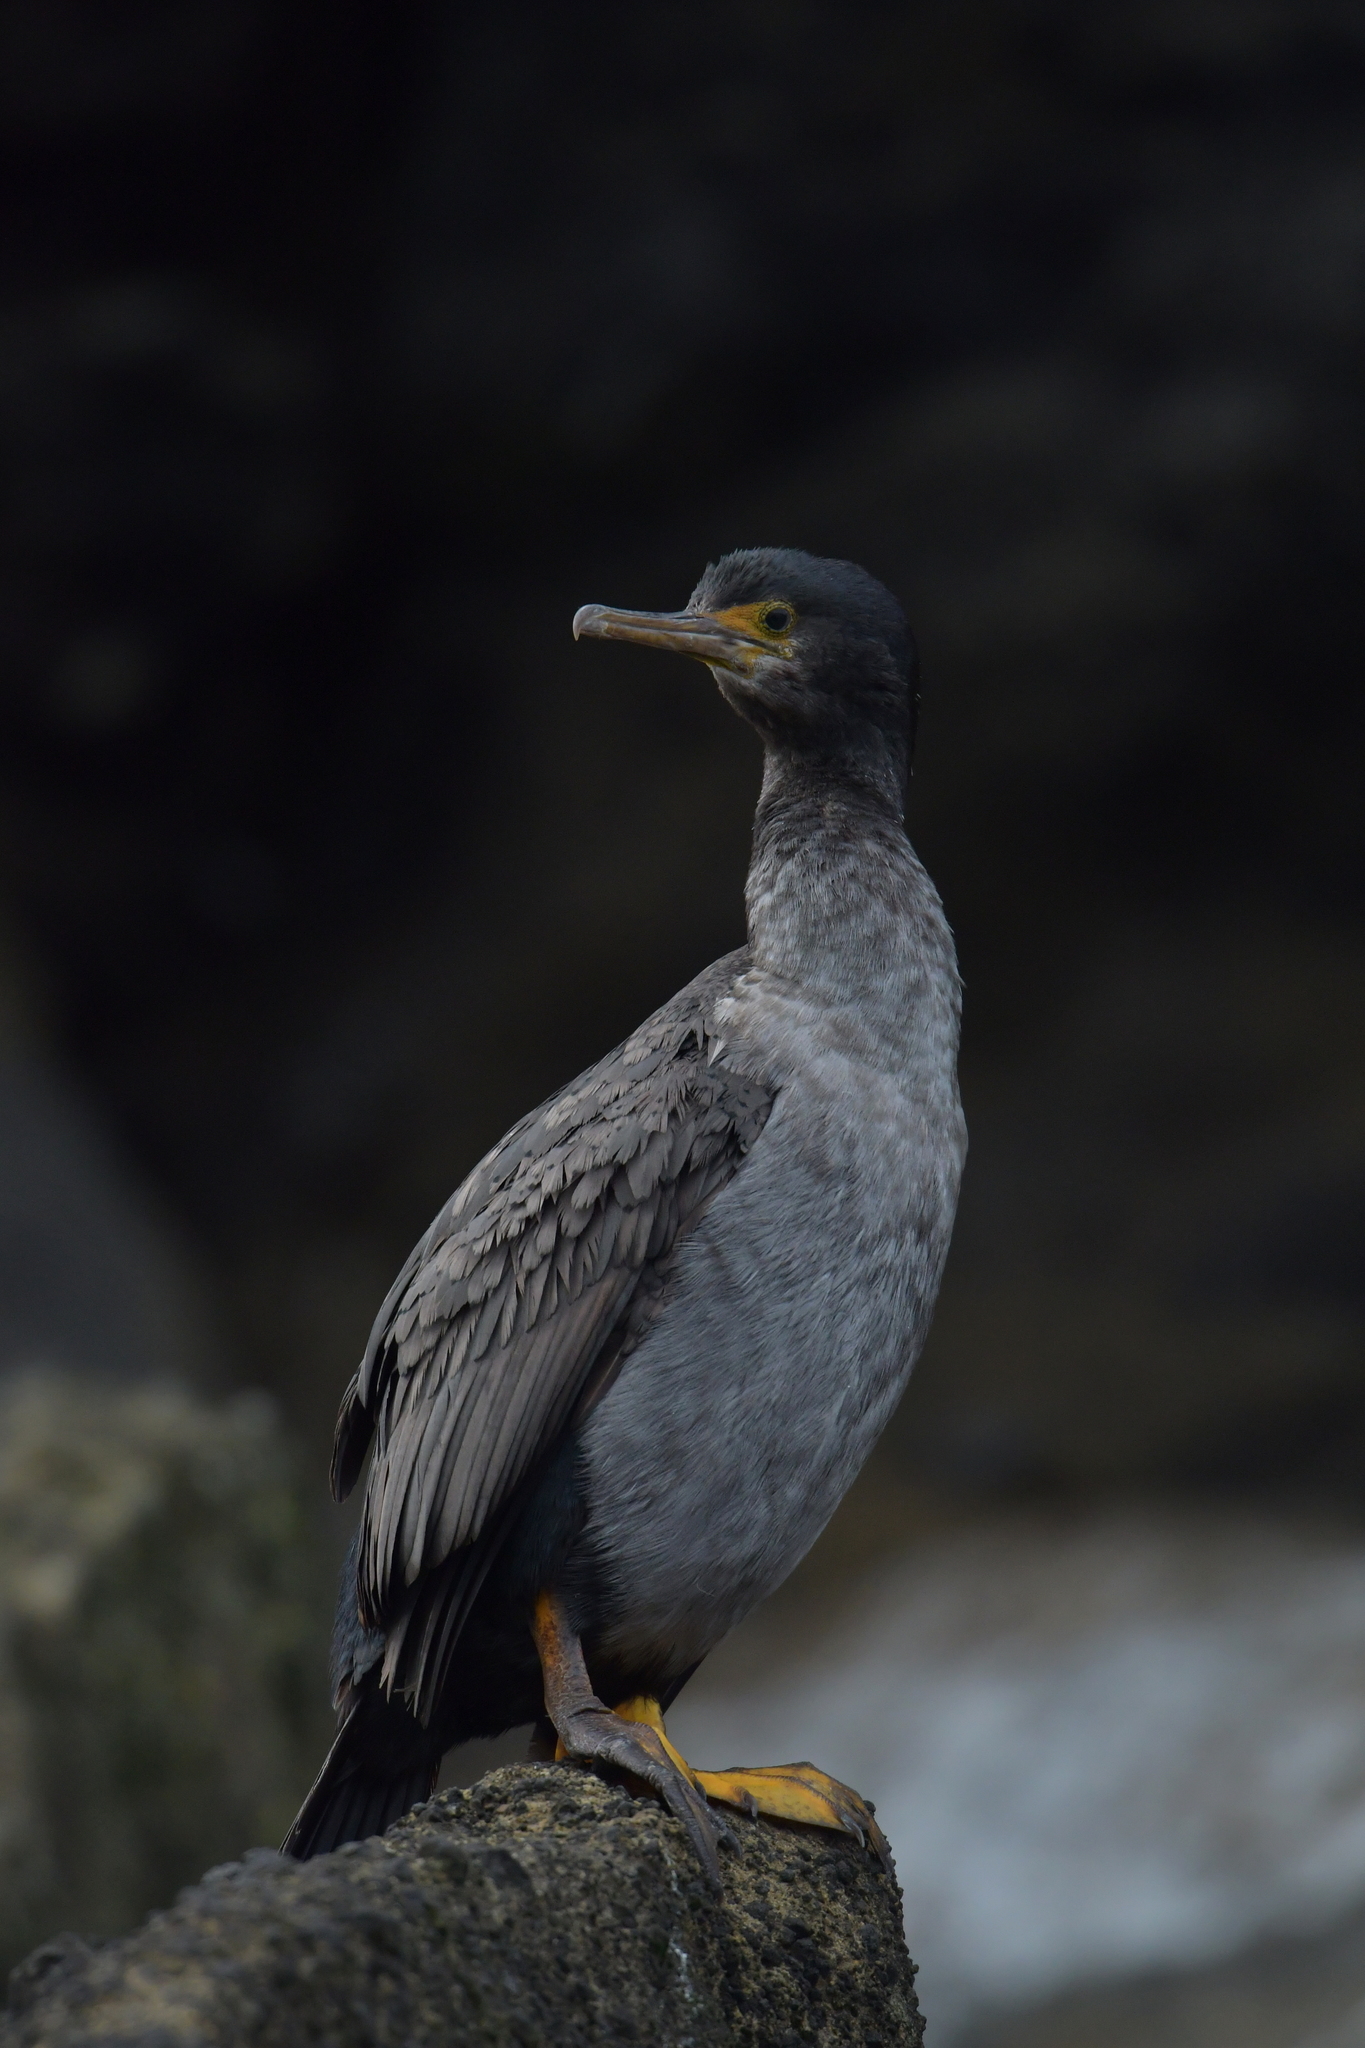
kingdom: Animalia
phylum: Chordata
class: Aves
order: Suliformes
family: Phalacrocoracidae
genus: Phalacrocorax
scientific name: Phalacrocorax featherstoni
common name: Pitt shag
